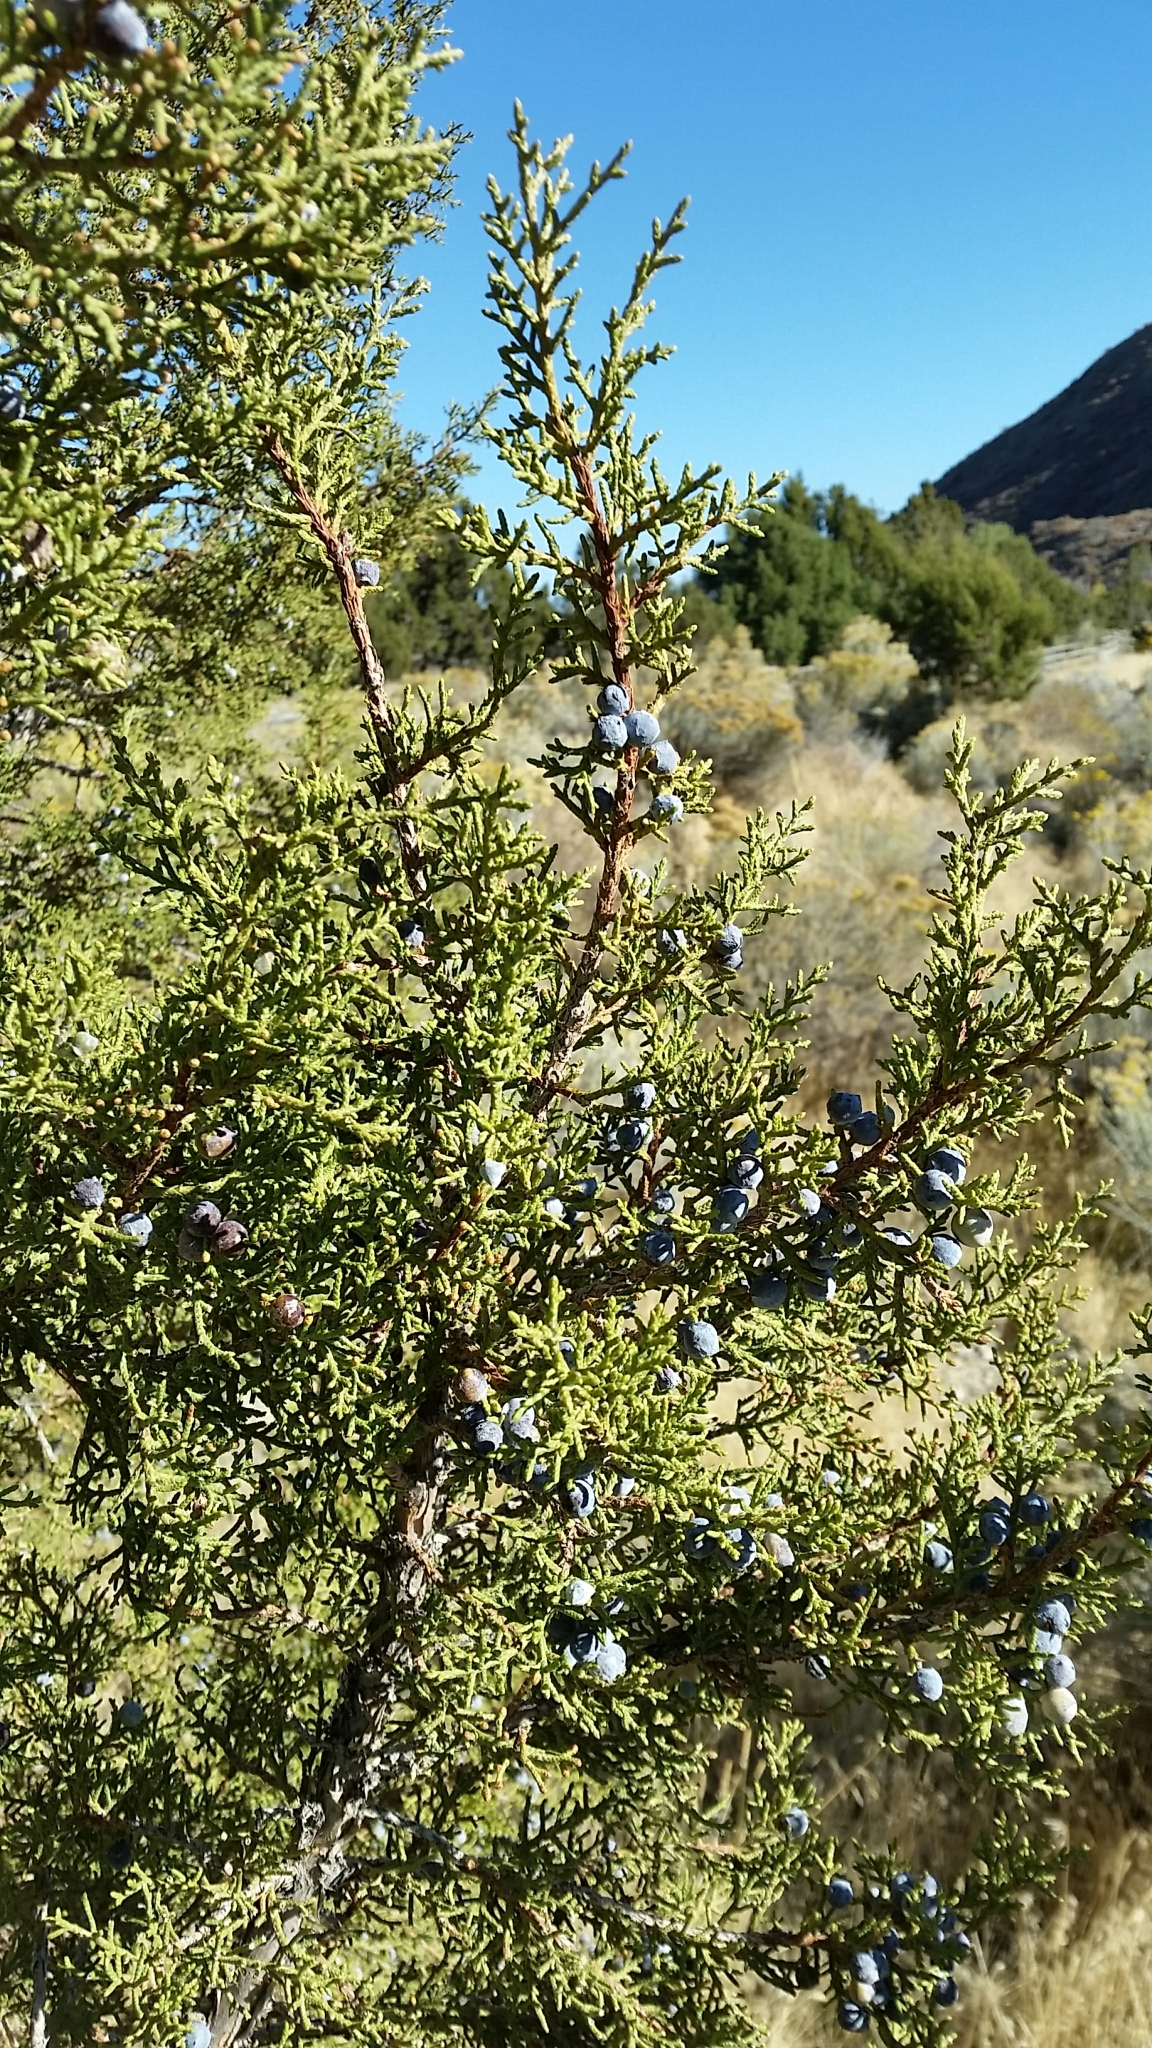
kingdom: Plantae
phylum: Tracheophyta
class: Pinopsida
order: Pinales
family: Cupressaceae
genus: Juniperus
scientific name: Juniperus osteosperma
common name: Utah juniper
